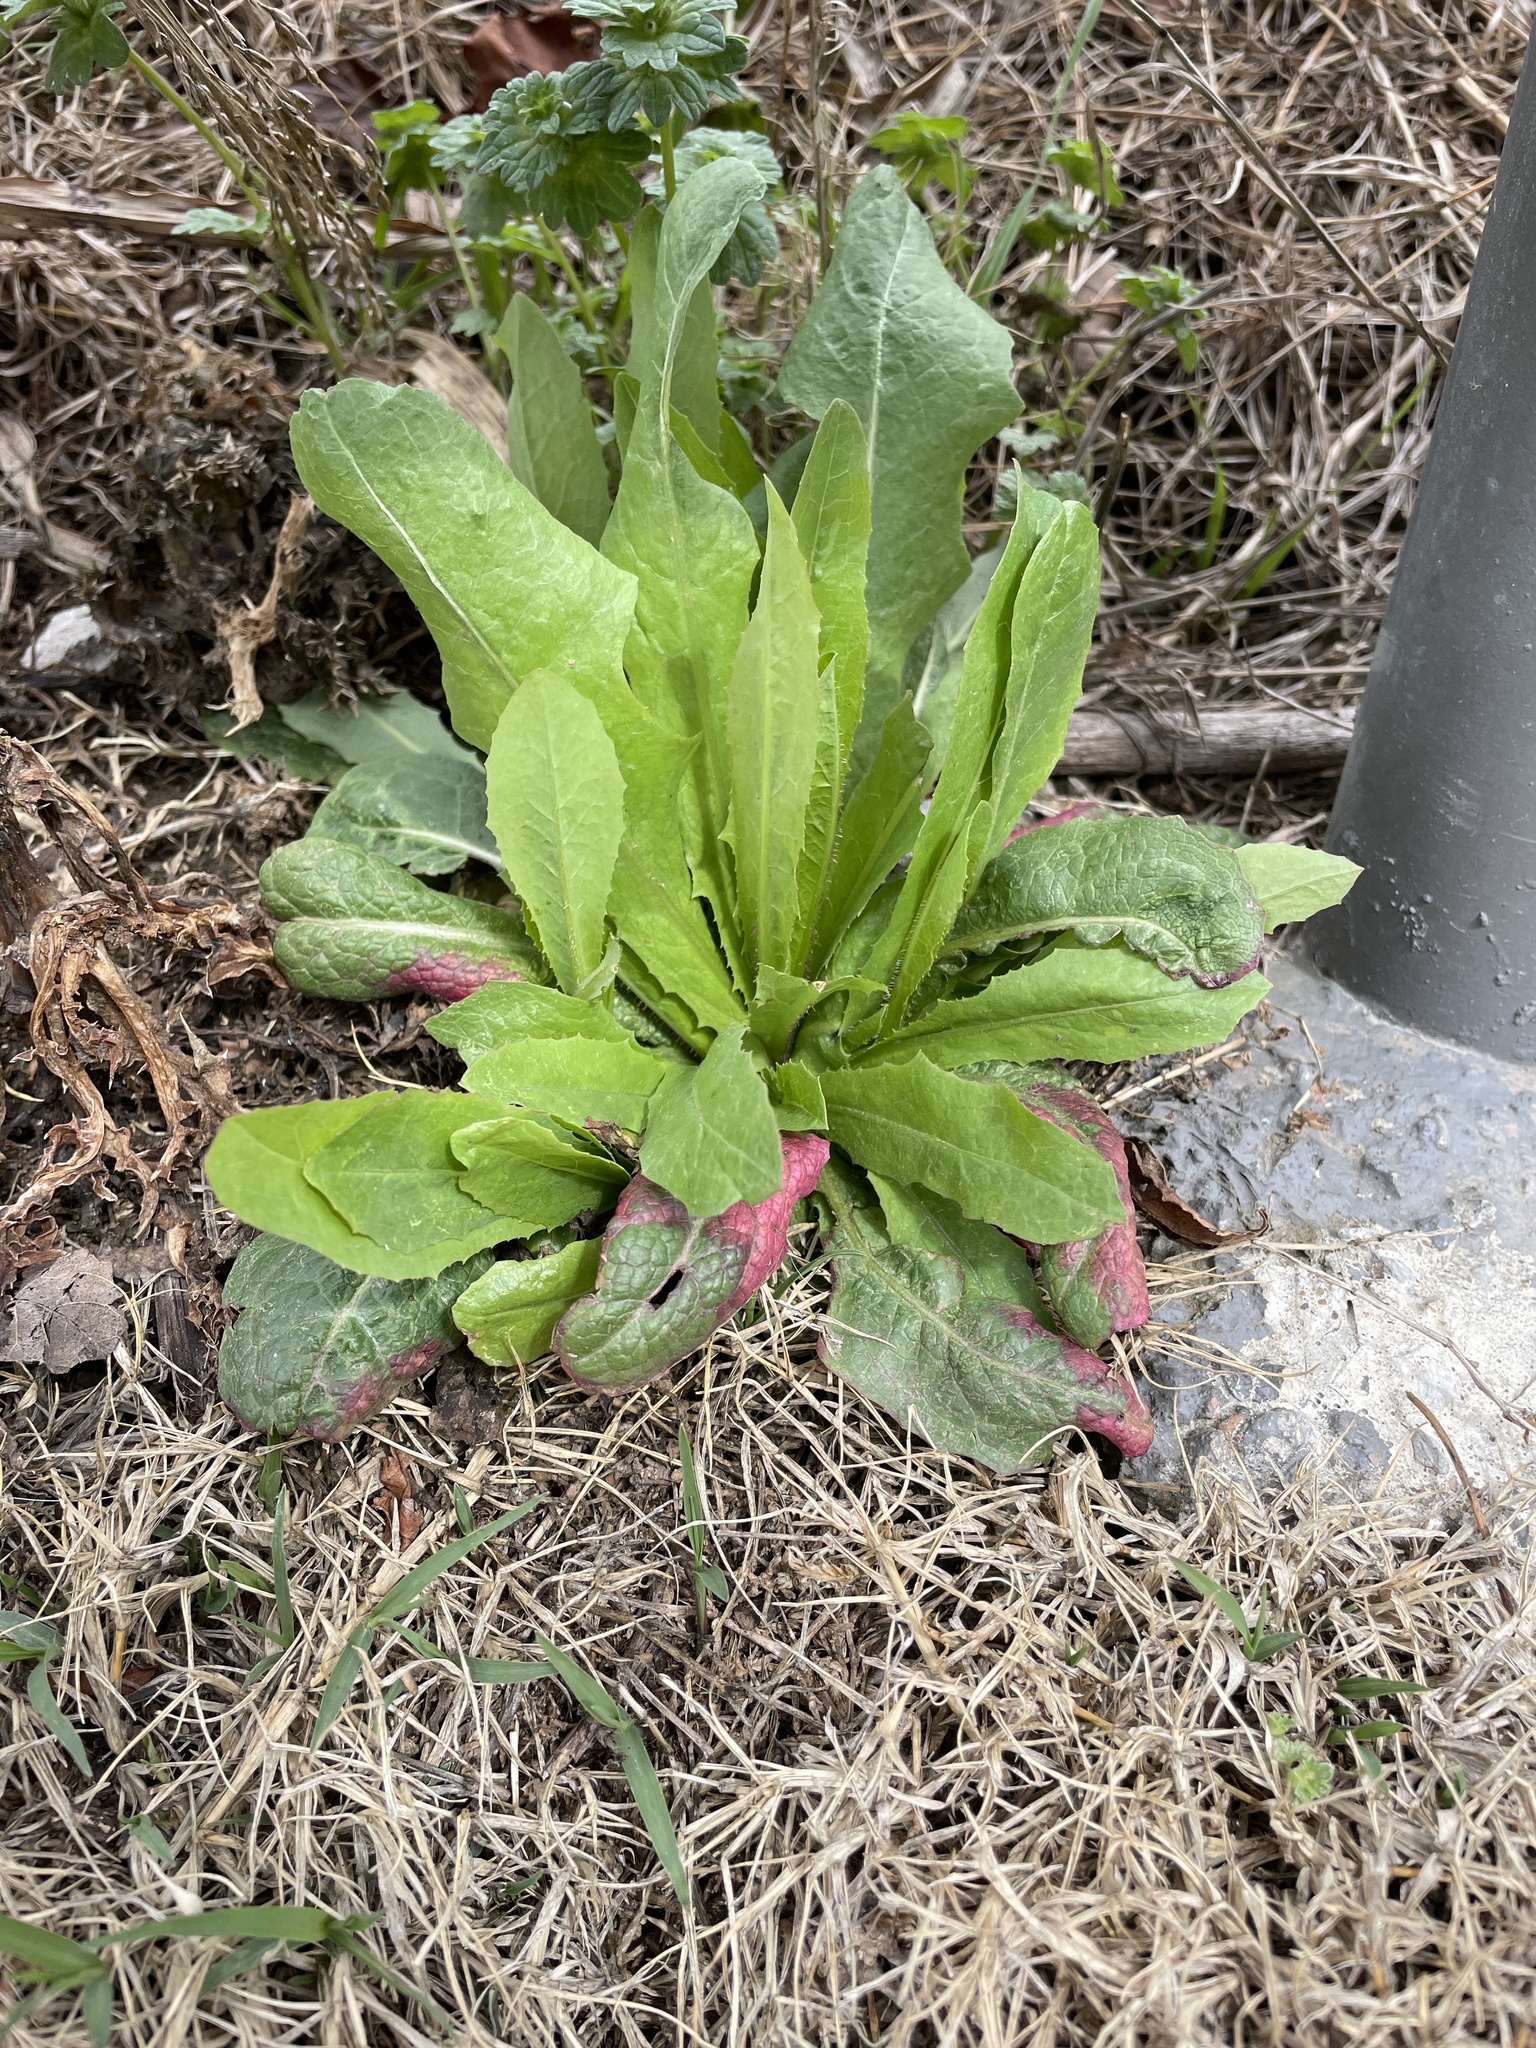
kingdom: Plantae
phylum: Tracheophyta
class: Magnoliopsida
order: Asterales
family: Asteraceae
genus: Lactuca
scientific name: Lactuca serriola
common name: Prickly lettuce
